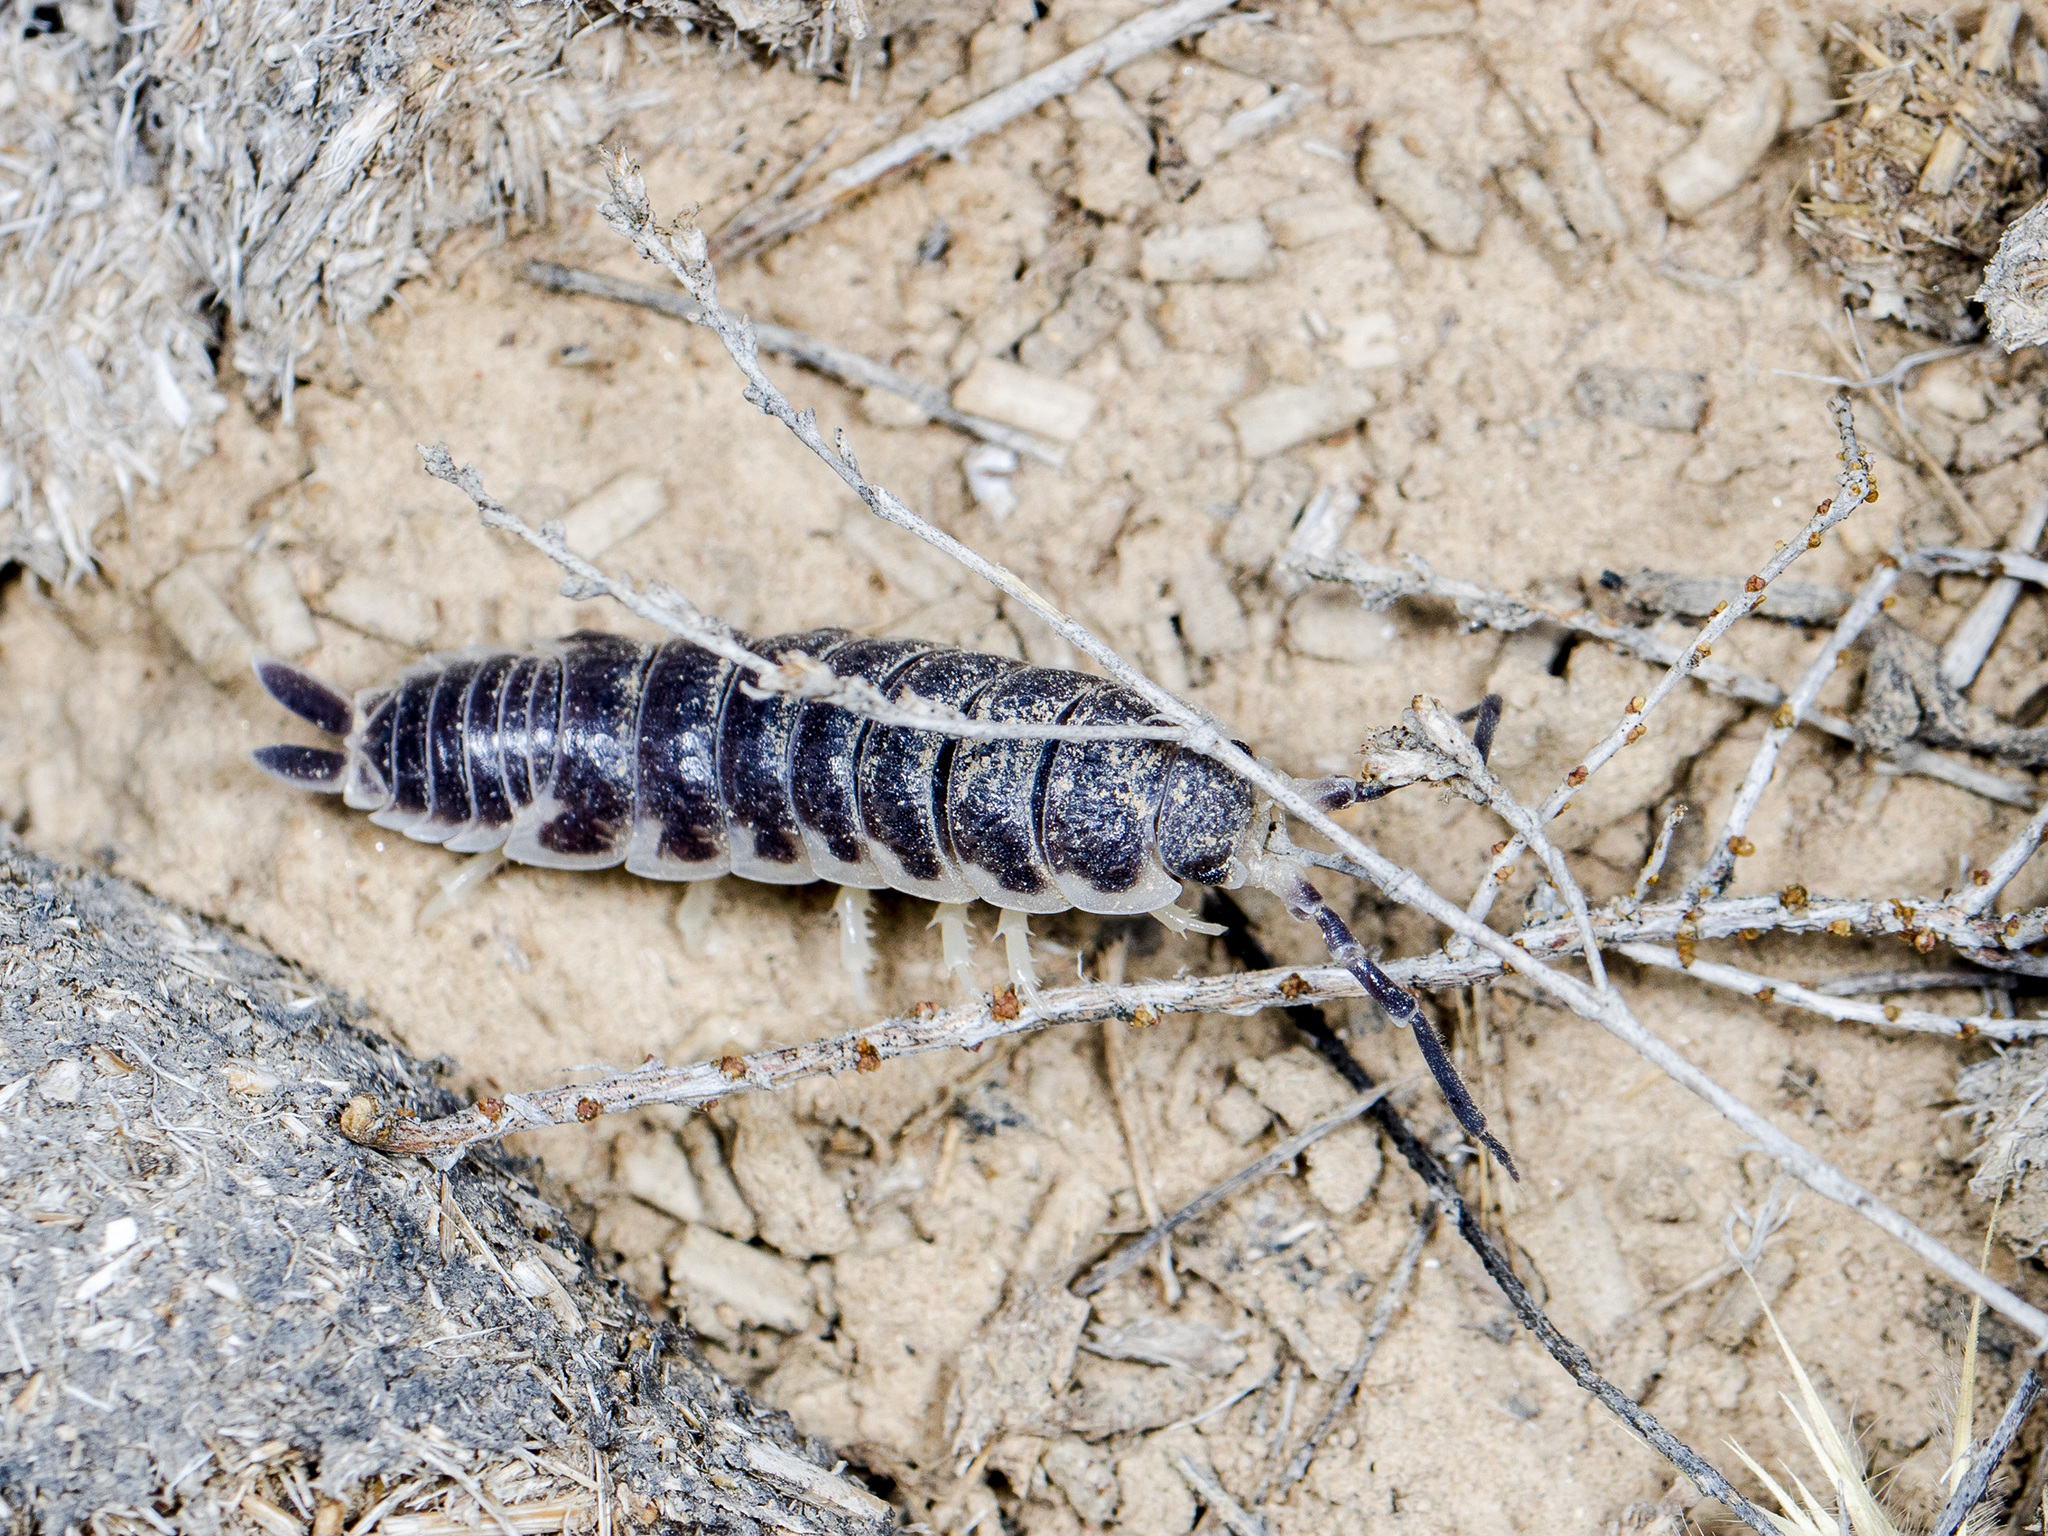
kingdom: Animalia
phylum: Arthropoda
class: Malacostraca
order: Isopoda
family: Agnaridae
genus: Hemilepistus
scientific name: Hemilepistus
